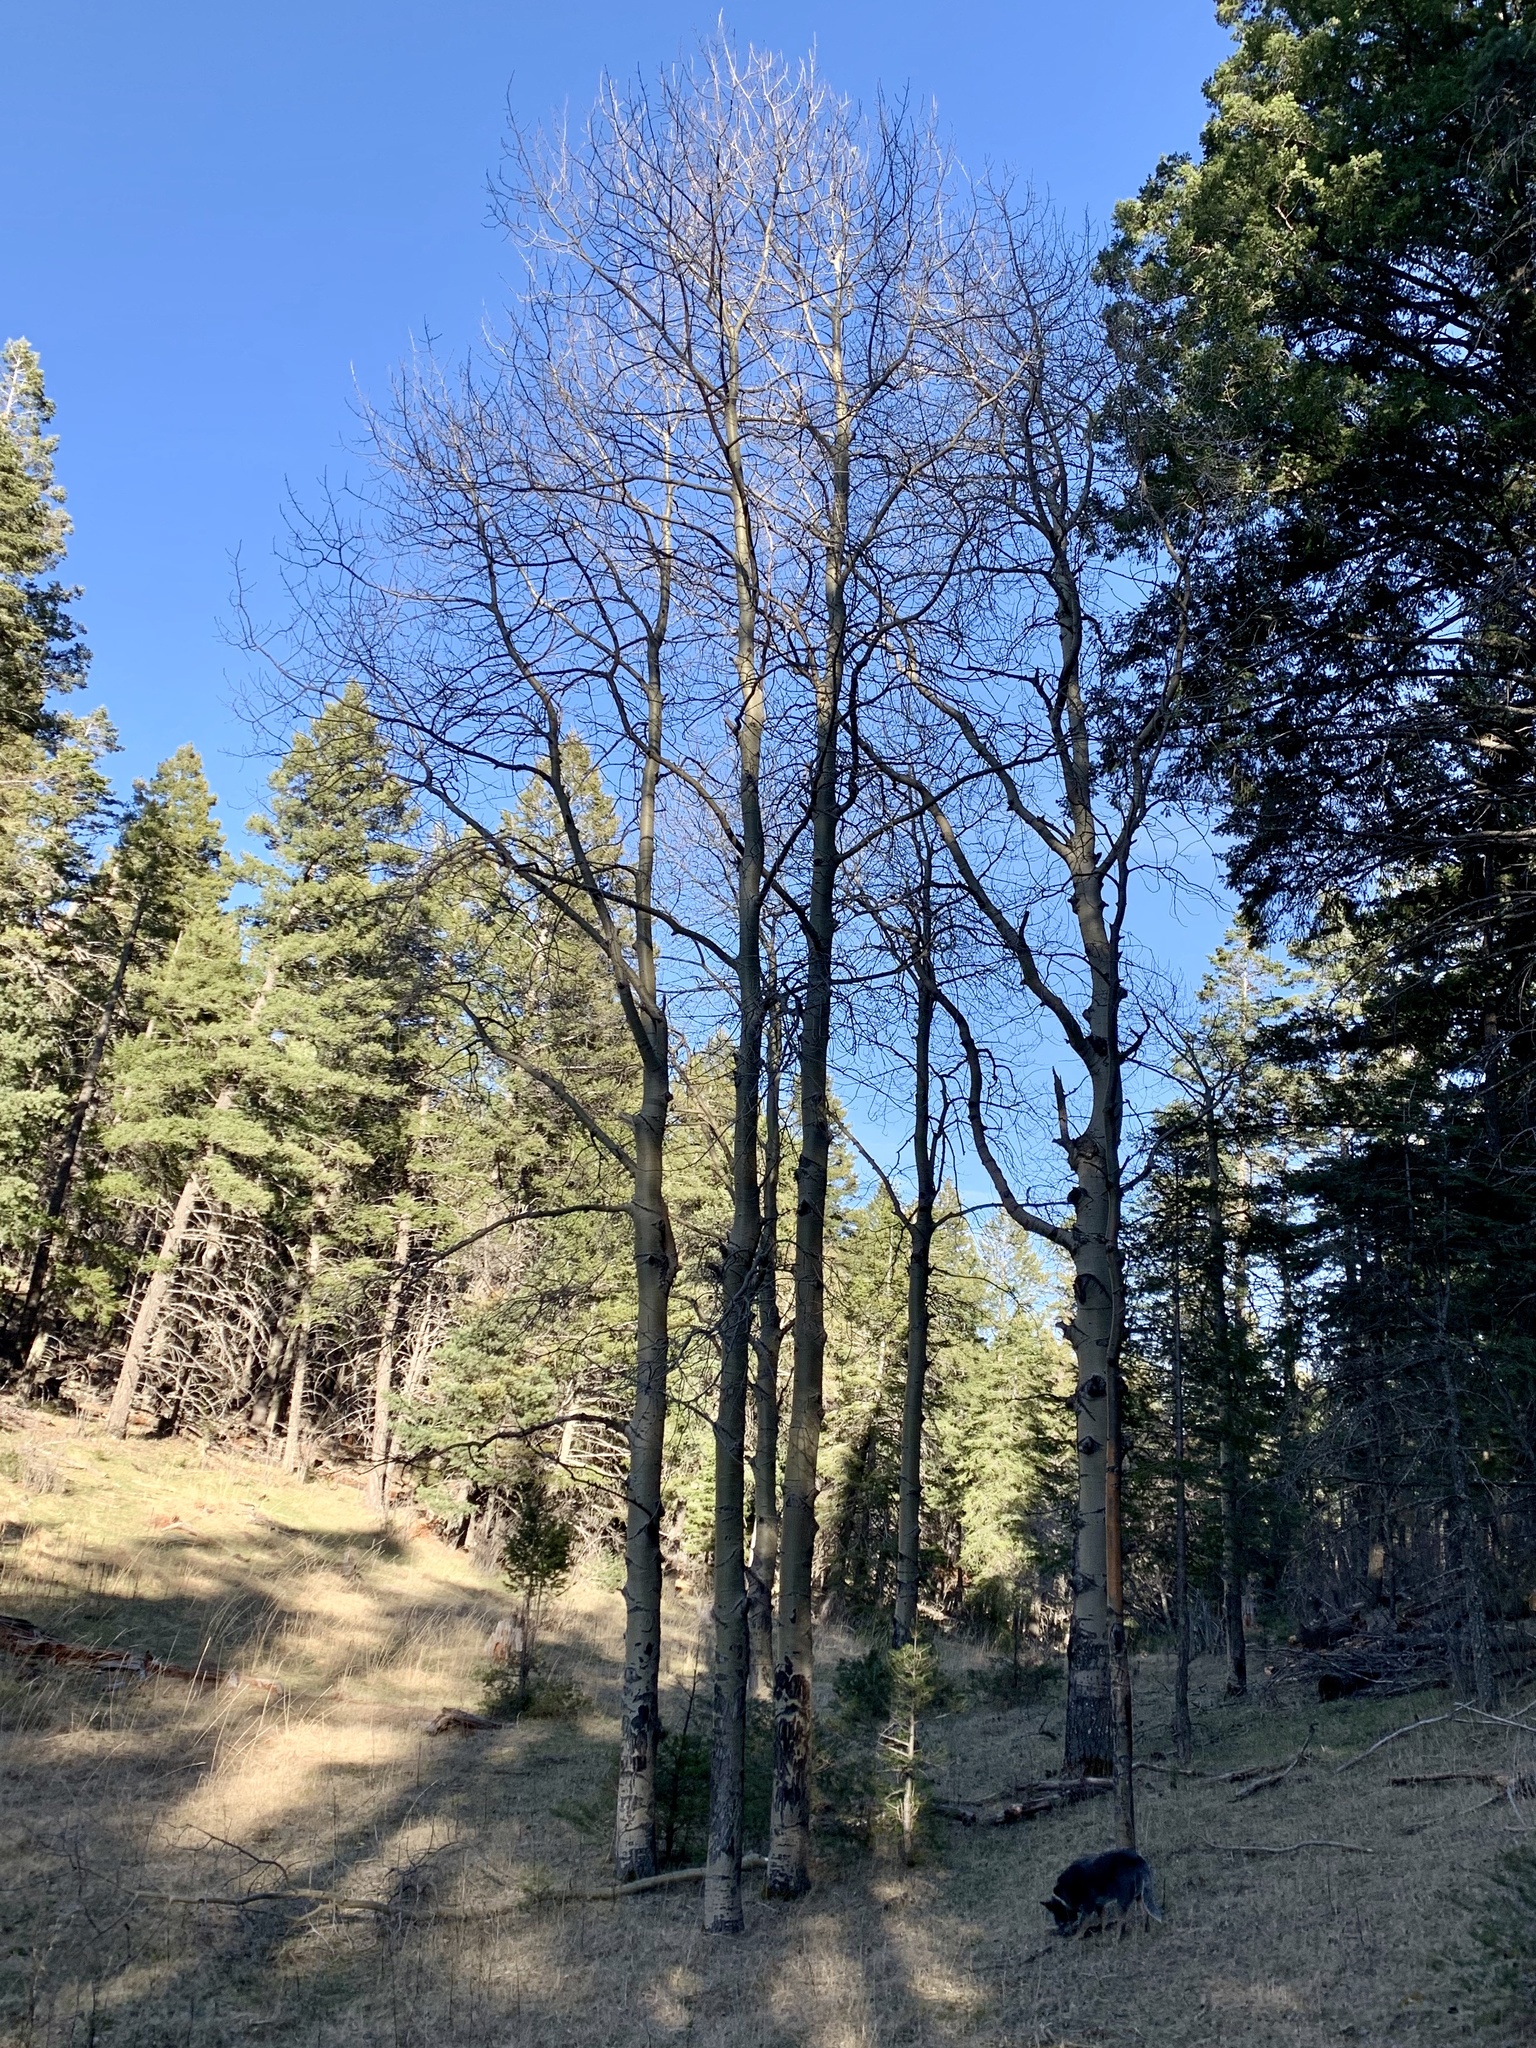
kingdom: Plantae
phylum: Tracheophyta
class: Magnoliopsida
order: Malpighiales
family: Salicaceae
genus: Populus
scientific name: Populus tremuloides
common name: Quaking aspen
